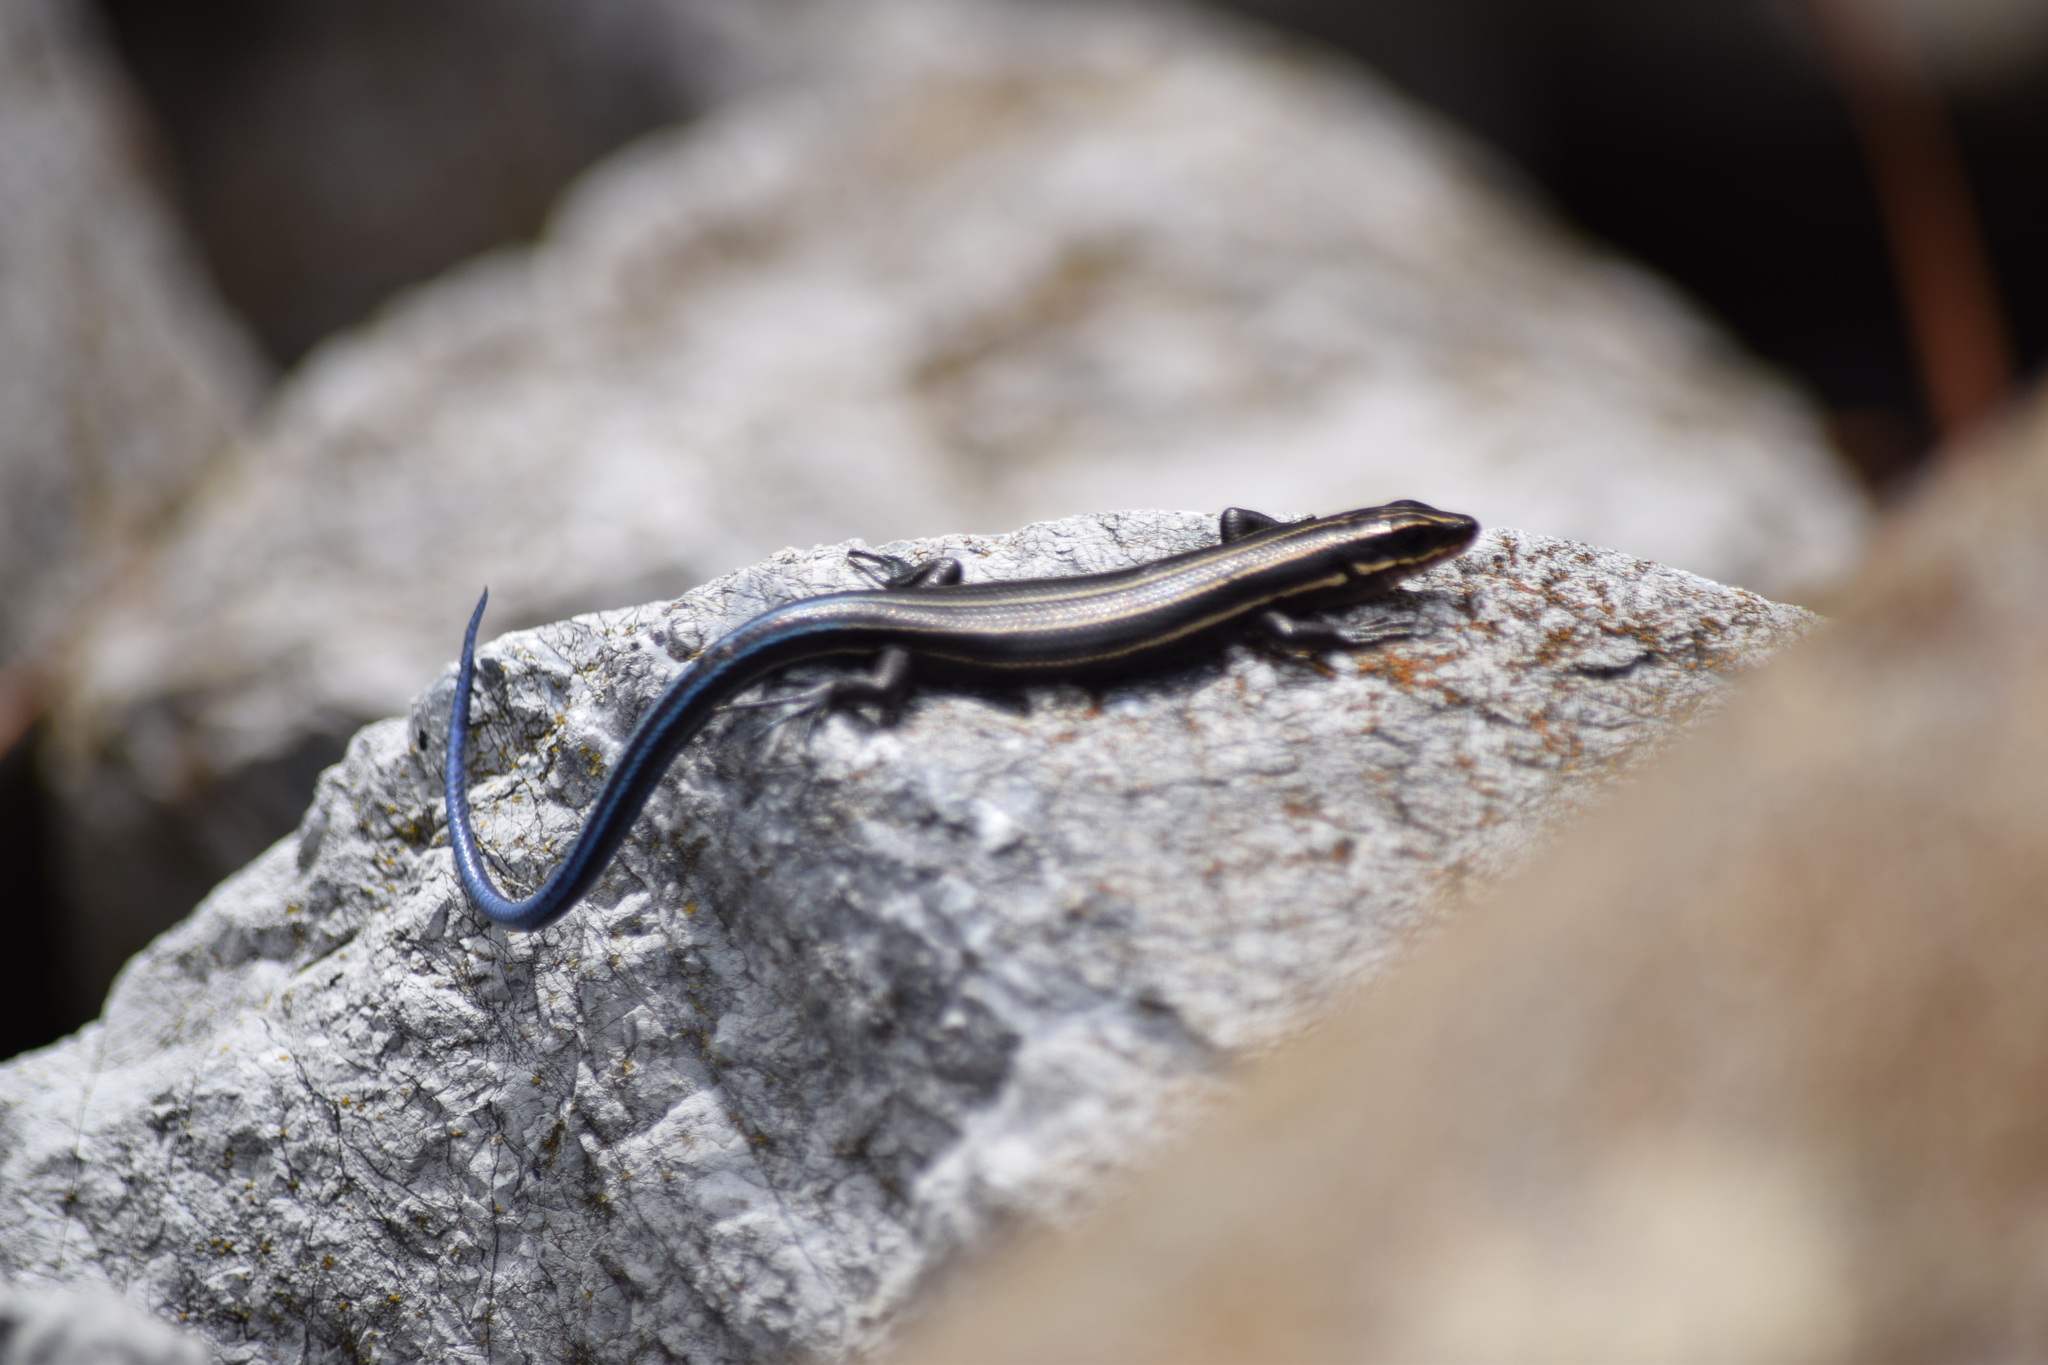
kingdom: Animalia
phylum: Chordata
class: Squamata
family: Scincidae
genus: Plestiodon
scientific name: Plestiodon fasciatus
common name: Five-lined skink
